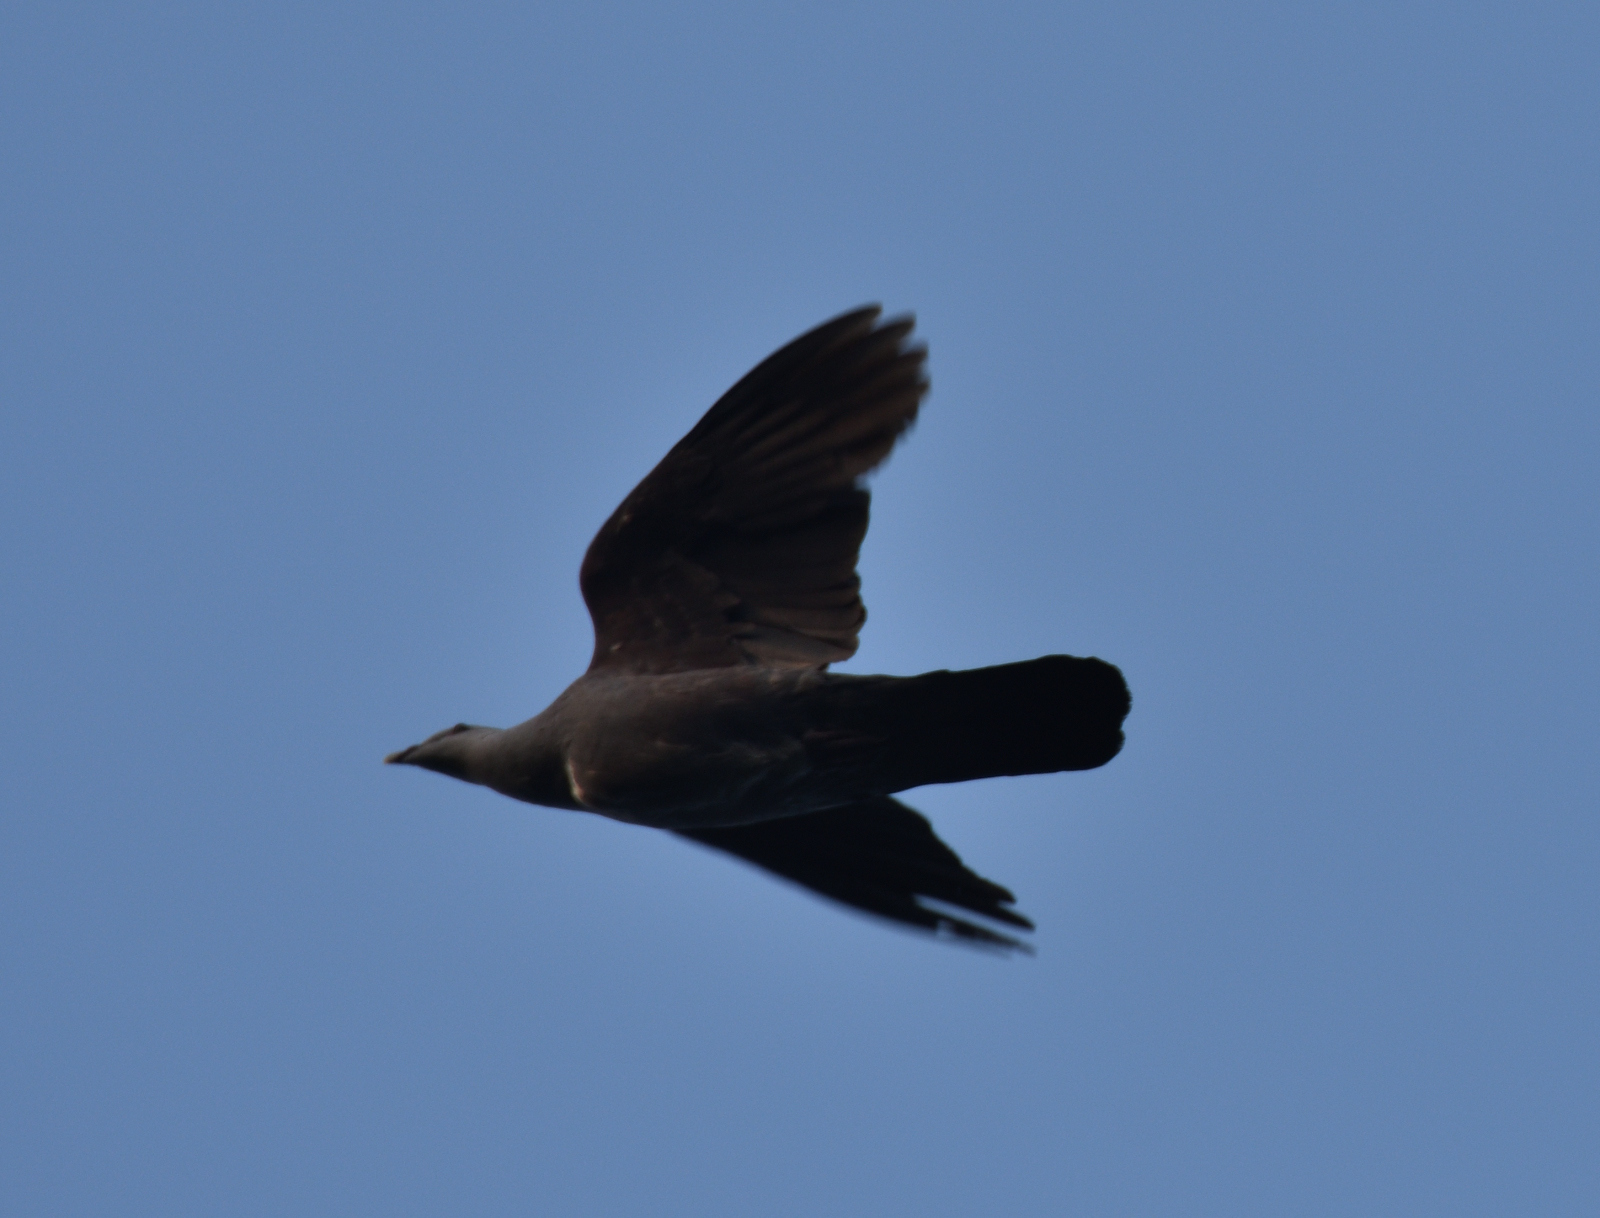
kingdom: Animalia
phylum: Chordata
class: Aves
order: Columbiformes
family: Columbidae
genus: Streptopelia
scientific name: Streptopelia orientalis
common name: Oriental turtle dove
